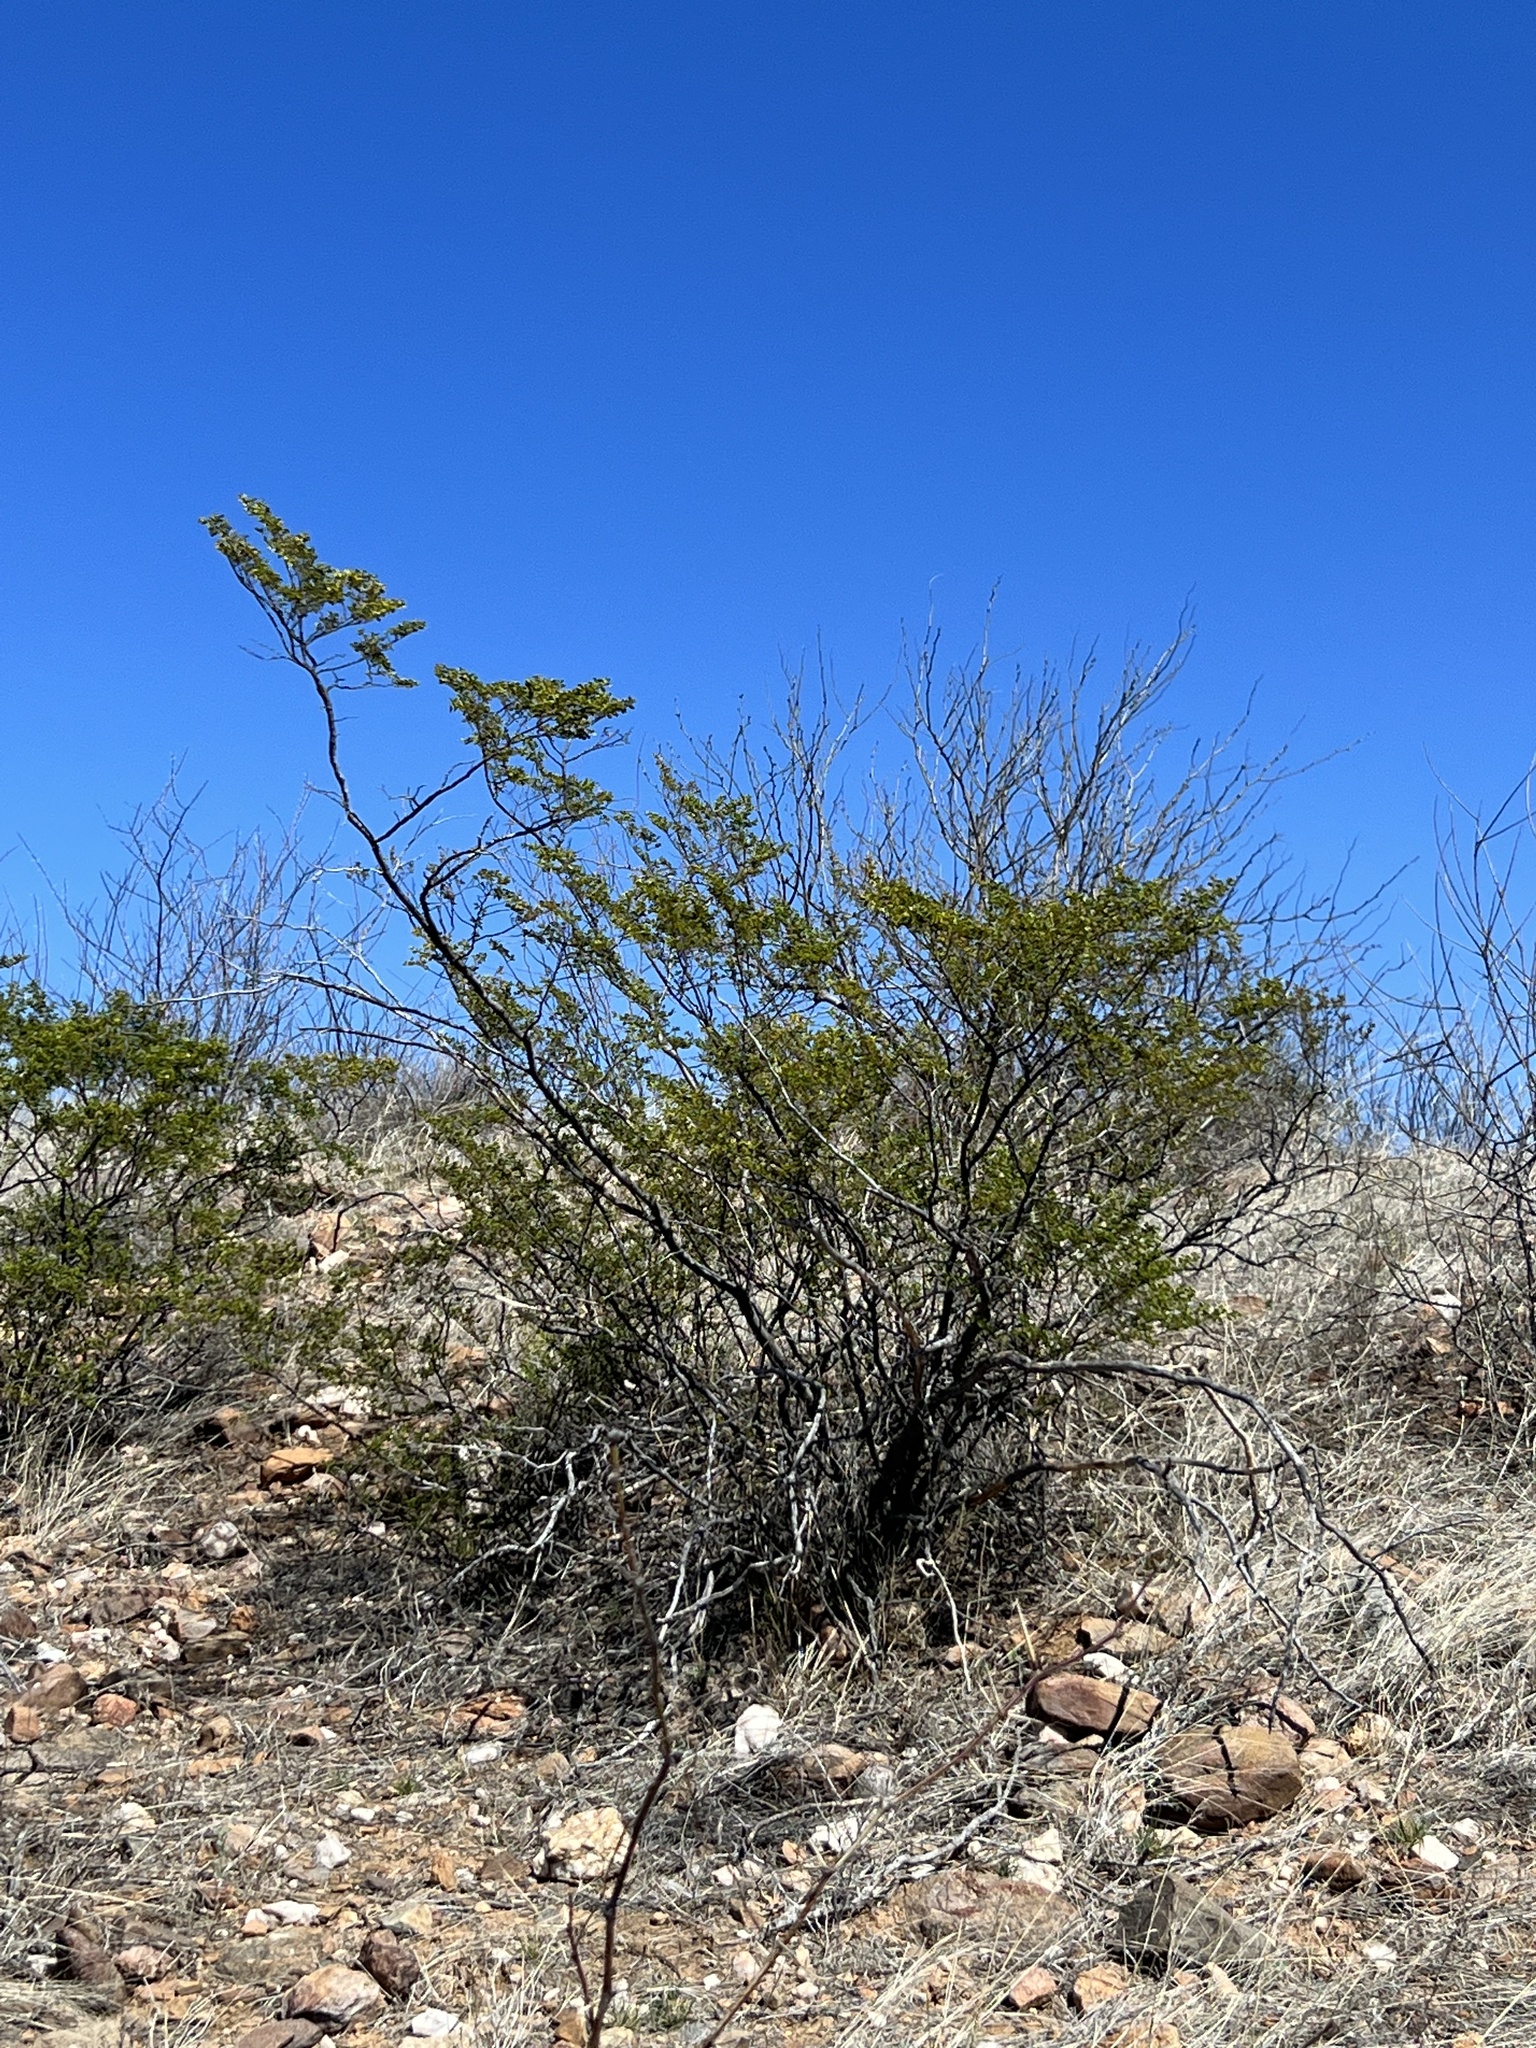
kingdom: Plantae
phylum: Tracheophyta
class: Magnoliopsida
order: Zygophyllales
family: Zygophyllaceae
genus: Larrea
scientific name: Larrea tridentata
